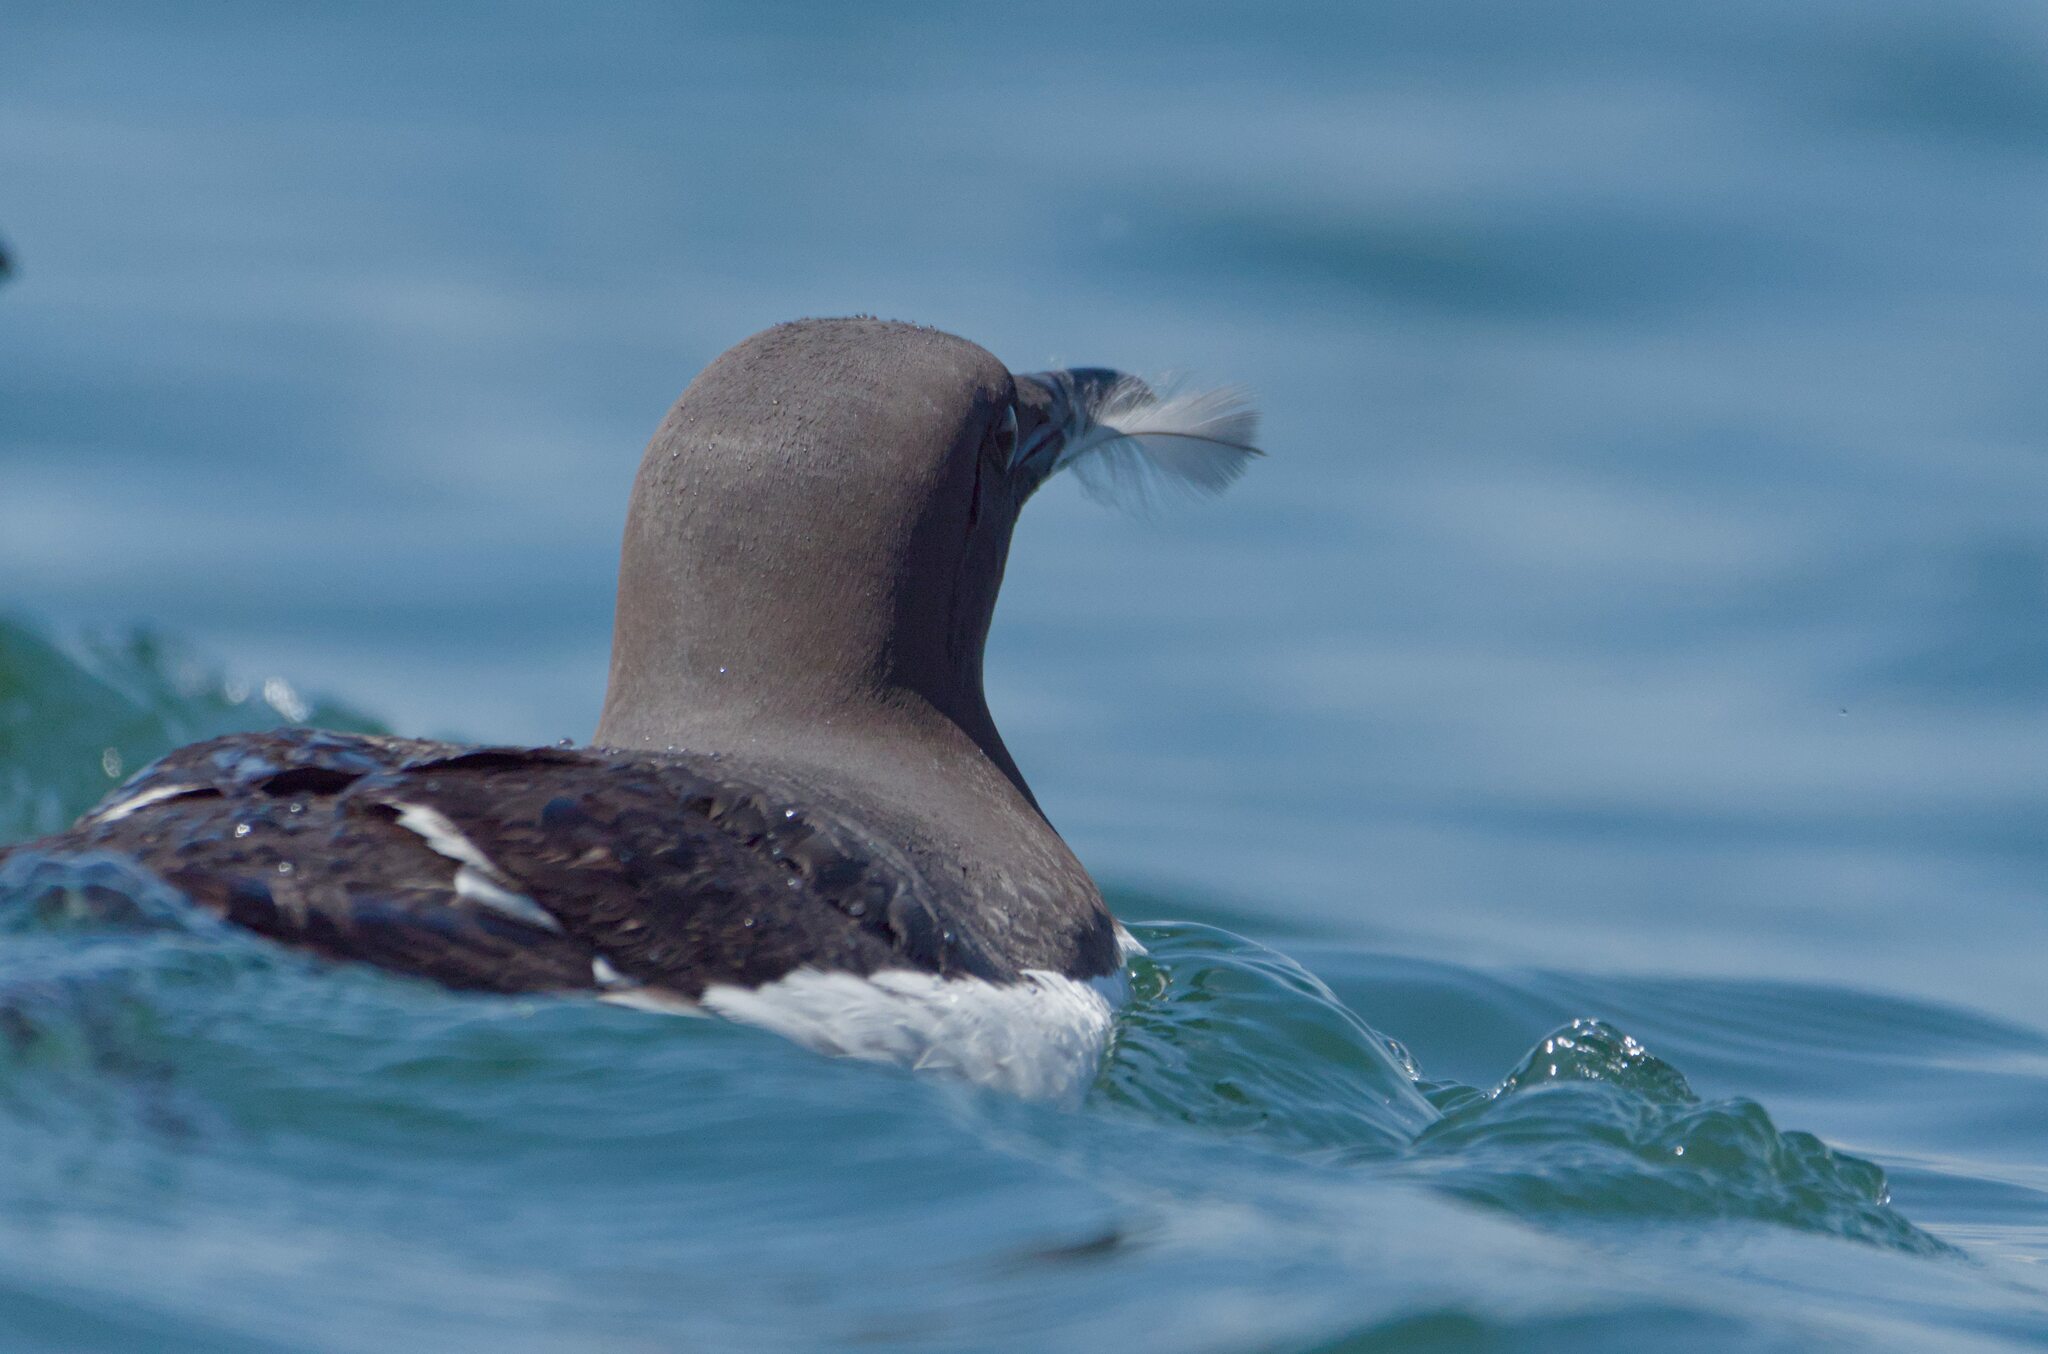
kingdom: Animalia
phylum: Chordata
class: Aves
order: Charadriiformes
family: Alcidae
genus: Uria
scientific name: Uria aalge
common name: Common murre
